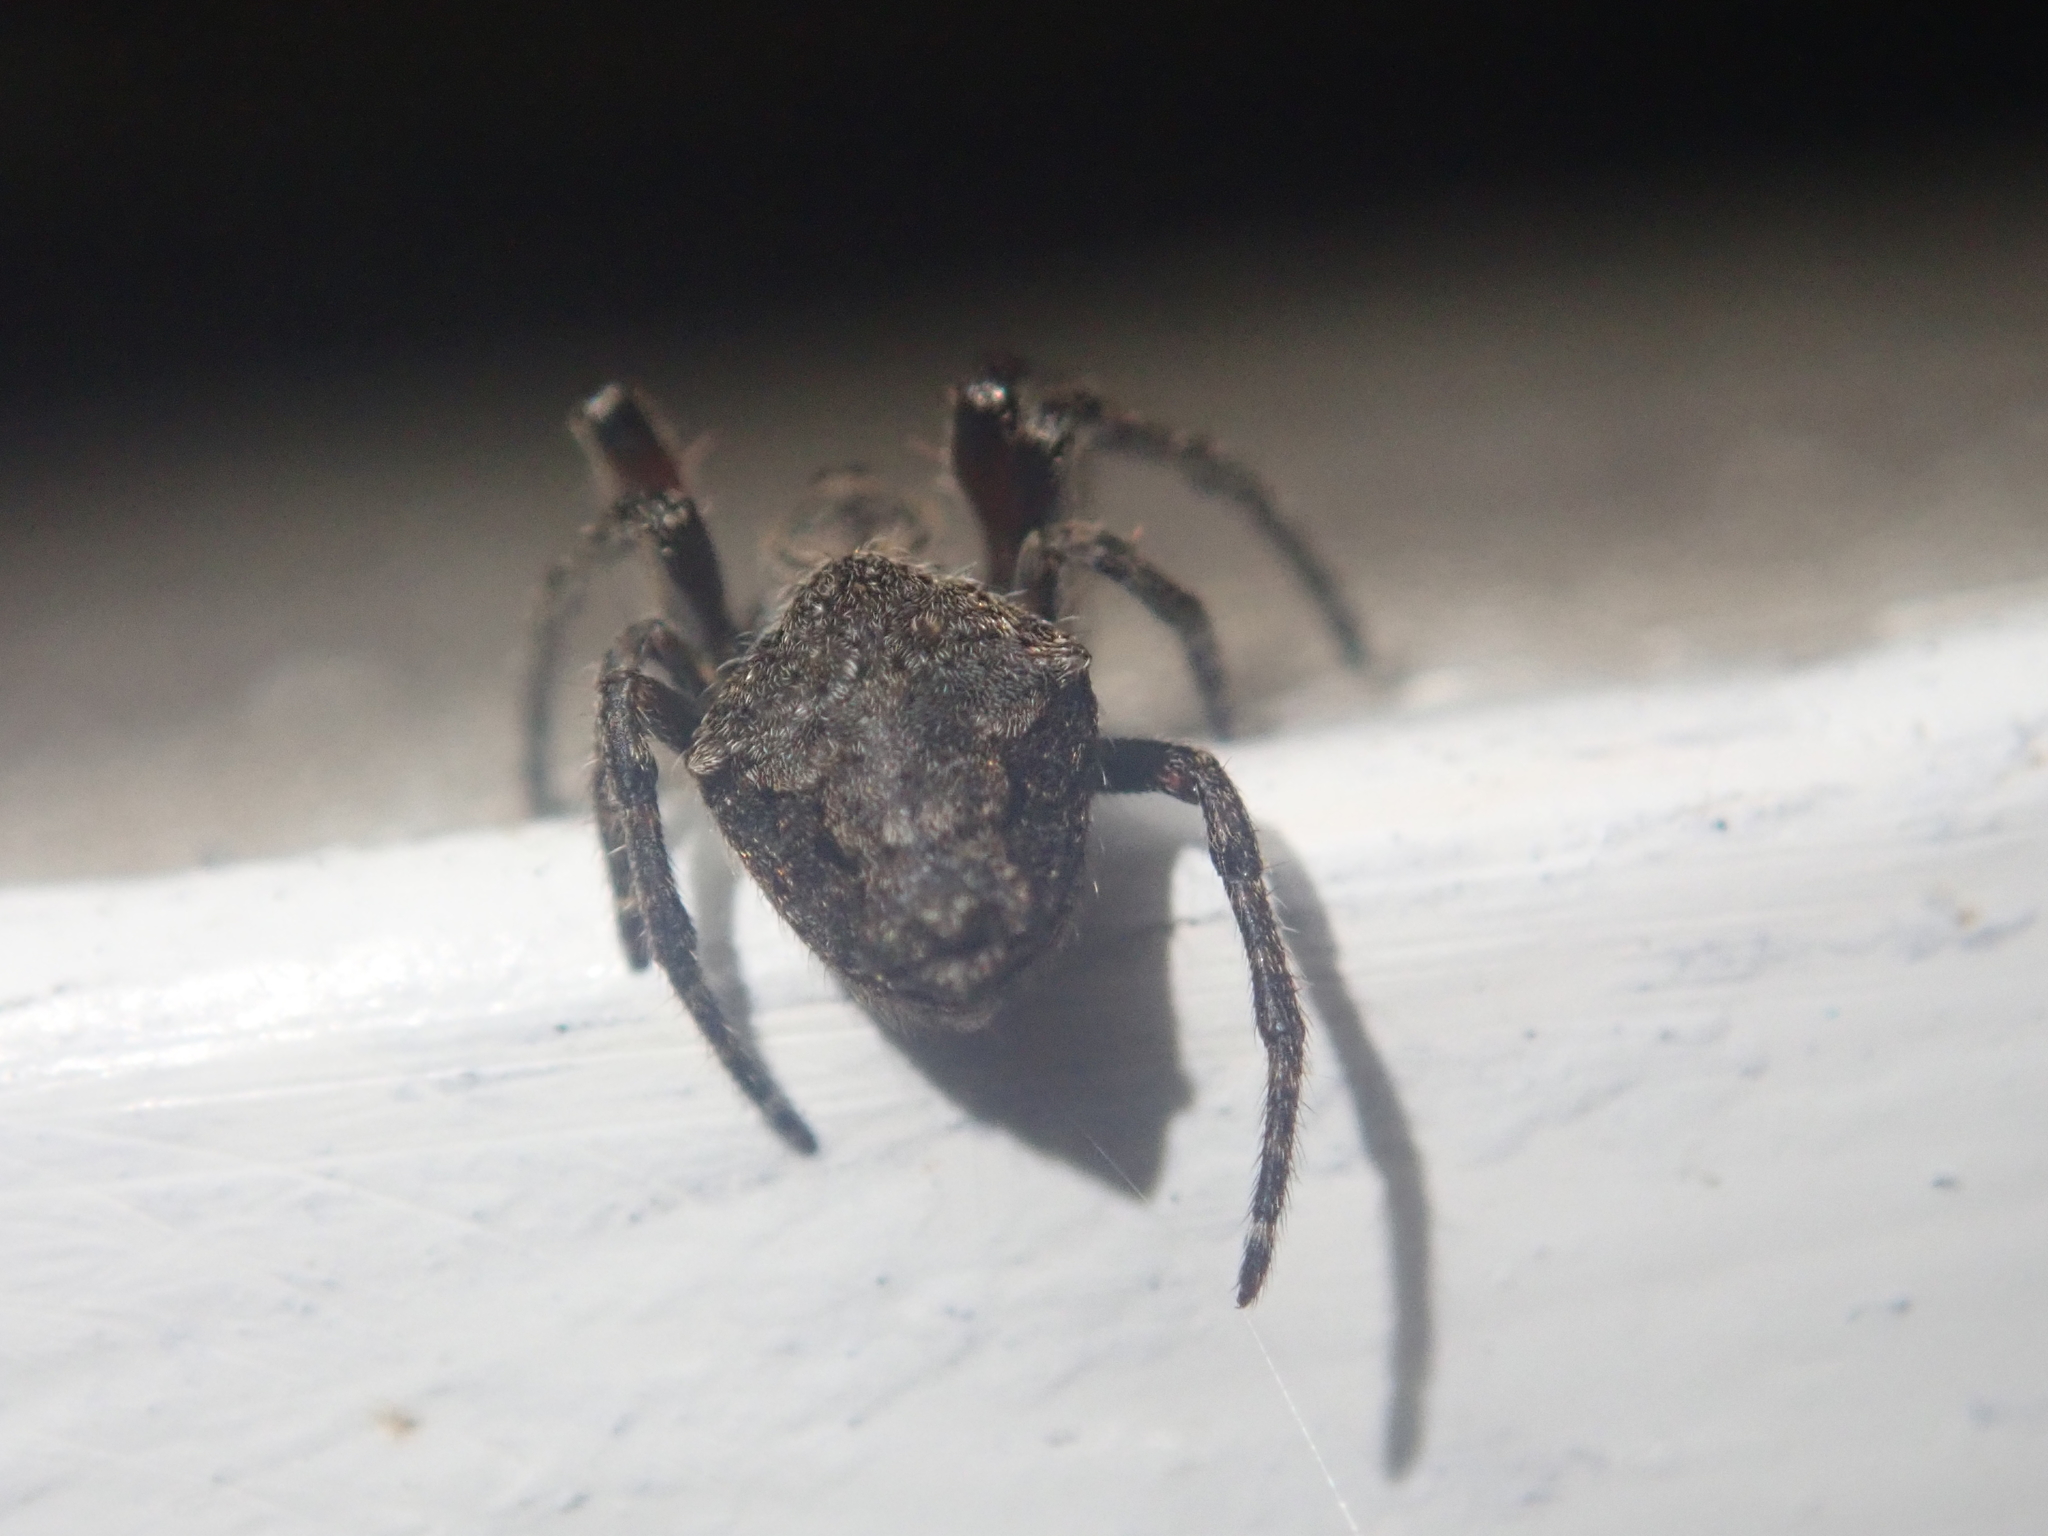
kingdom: Animalia
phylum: Arthropoda
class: Arachnida
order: Araneae
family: Araneidae
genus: Eriophora
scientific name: Eriophora pustulosa
